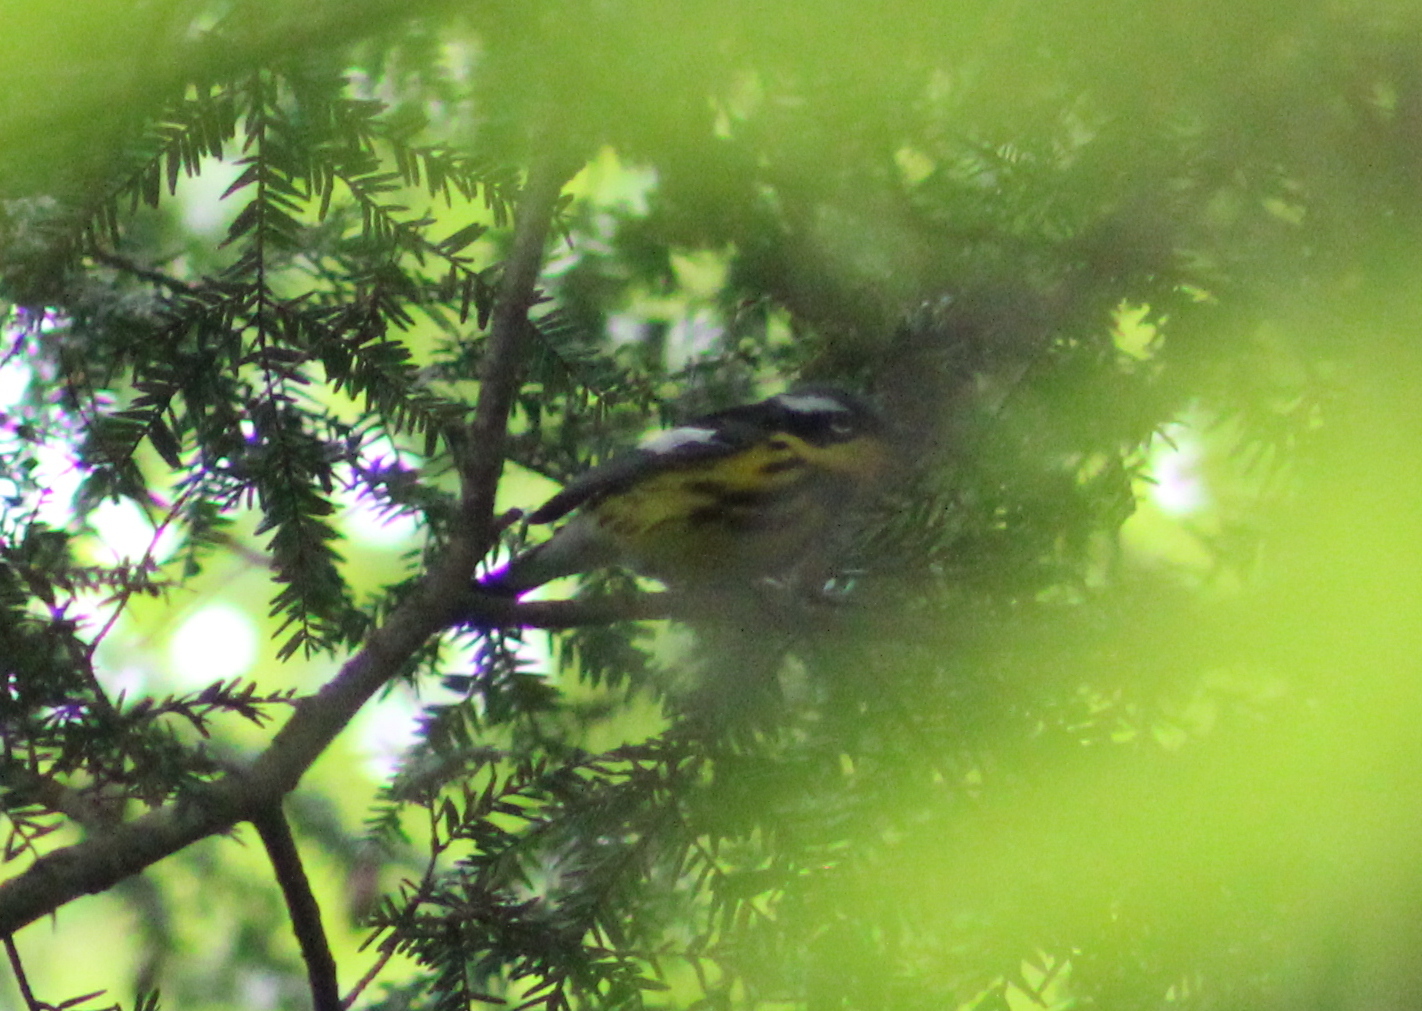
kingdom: Animalia
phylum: Chordata
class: Aves
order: Passeriformes
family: Parulidae
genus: Setophaga
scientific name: Setophaga magnolia
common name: Magnolia warbler
